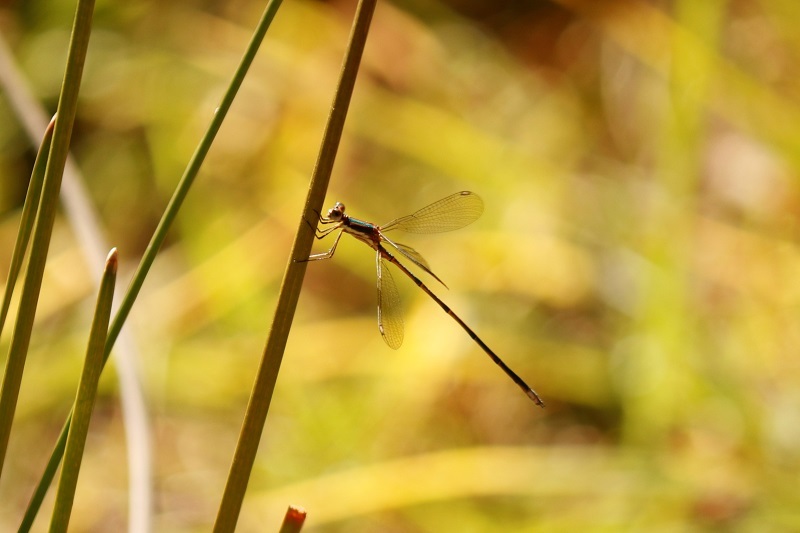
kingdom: Animalia
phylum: Arthropoda
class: Insecta
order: Odonata
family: Lestidae
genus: Lestes
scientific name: Lestes virgatus
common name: Smoky spreadwing
